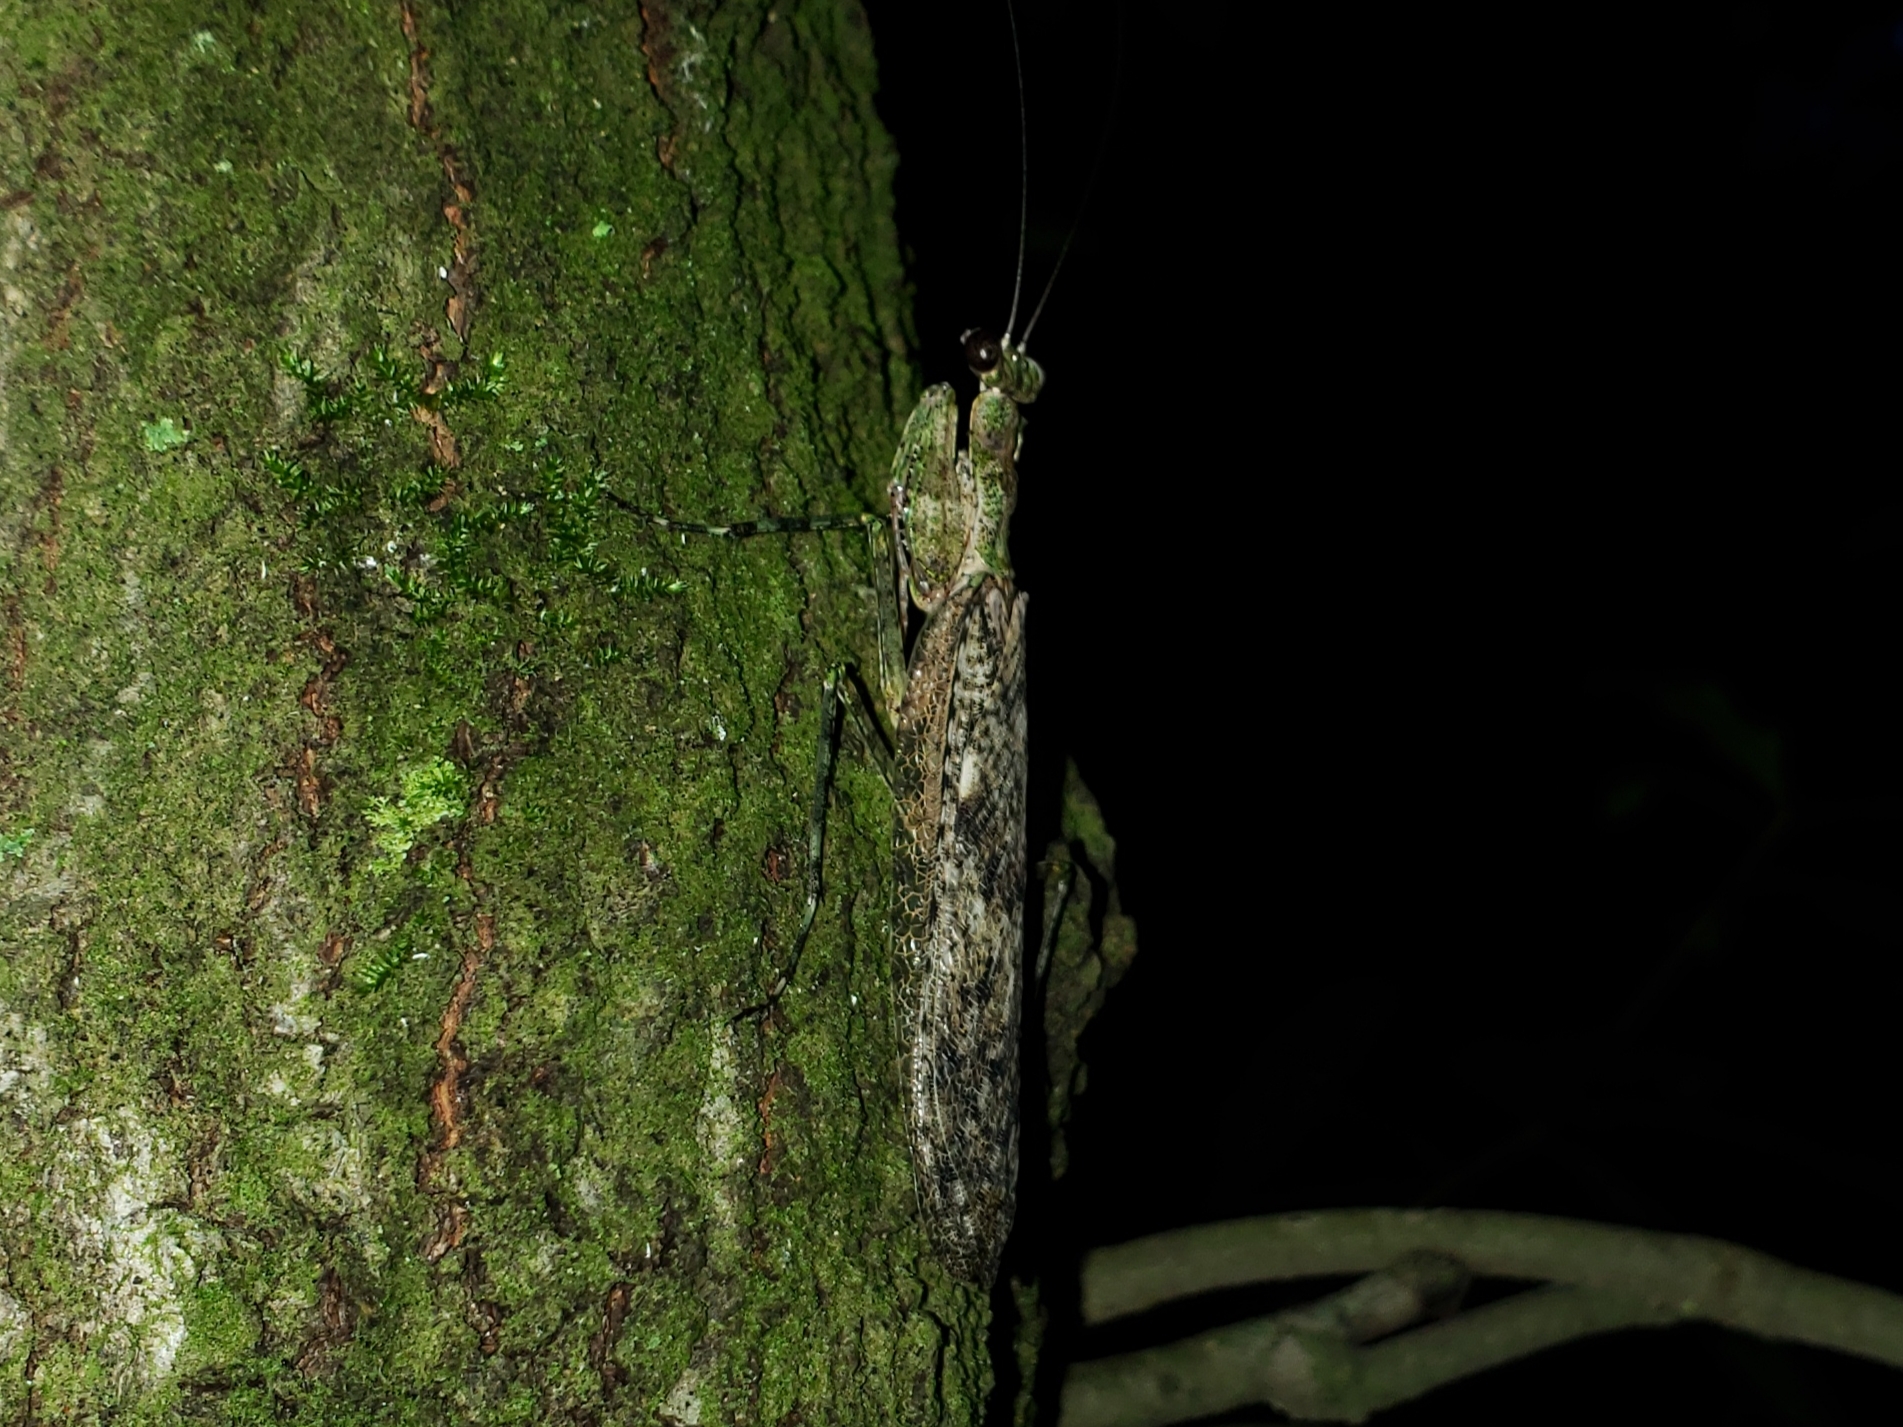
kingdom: Animalia
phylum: Arthropoda
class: Insecta
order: Mantodea
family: Epaphroditidae
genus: Gonatista
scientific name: Gonatista grisea
